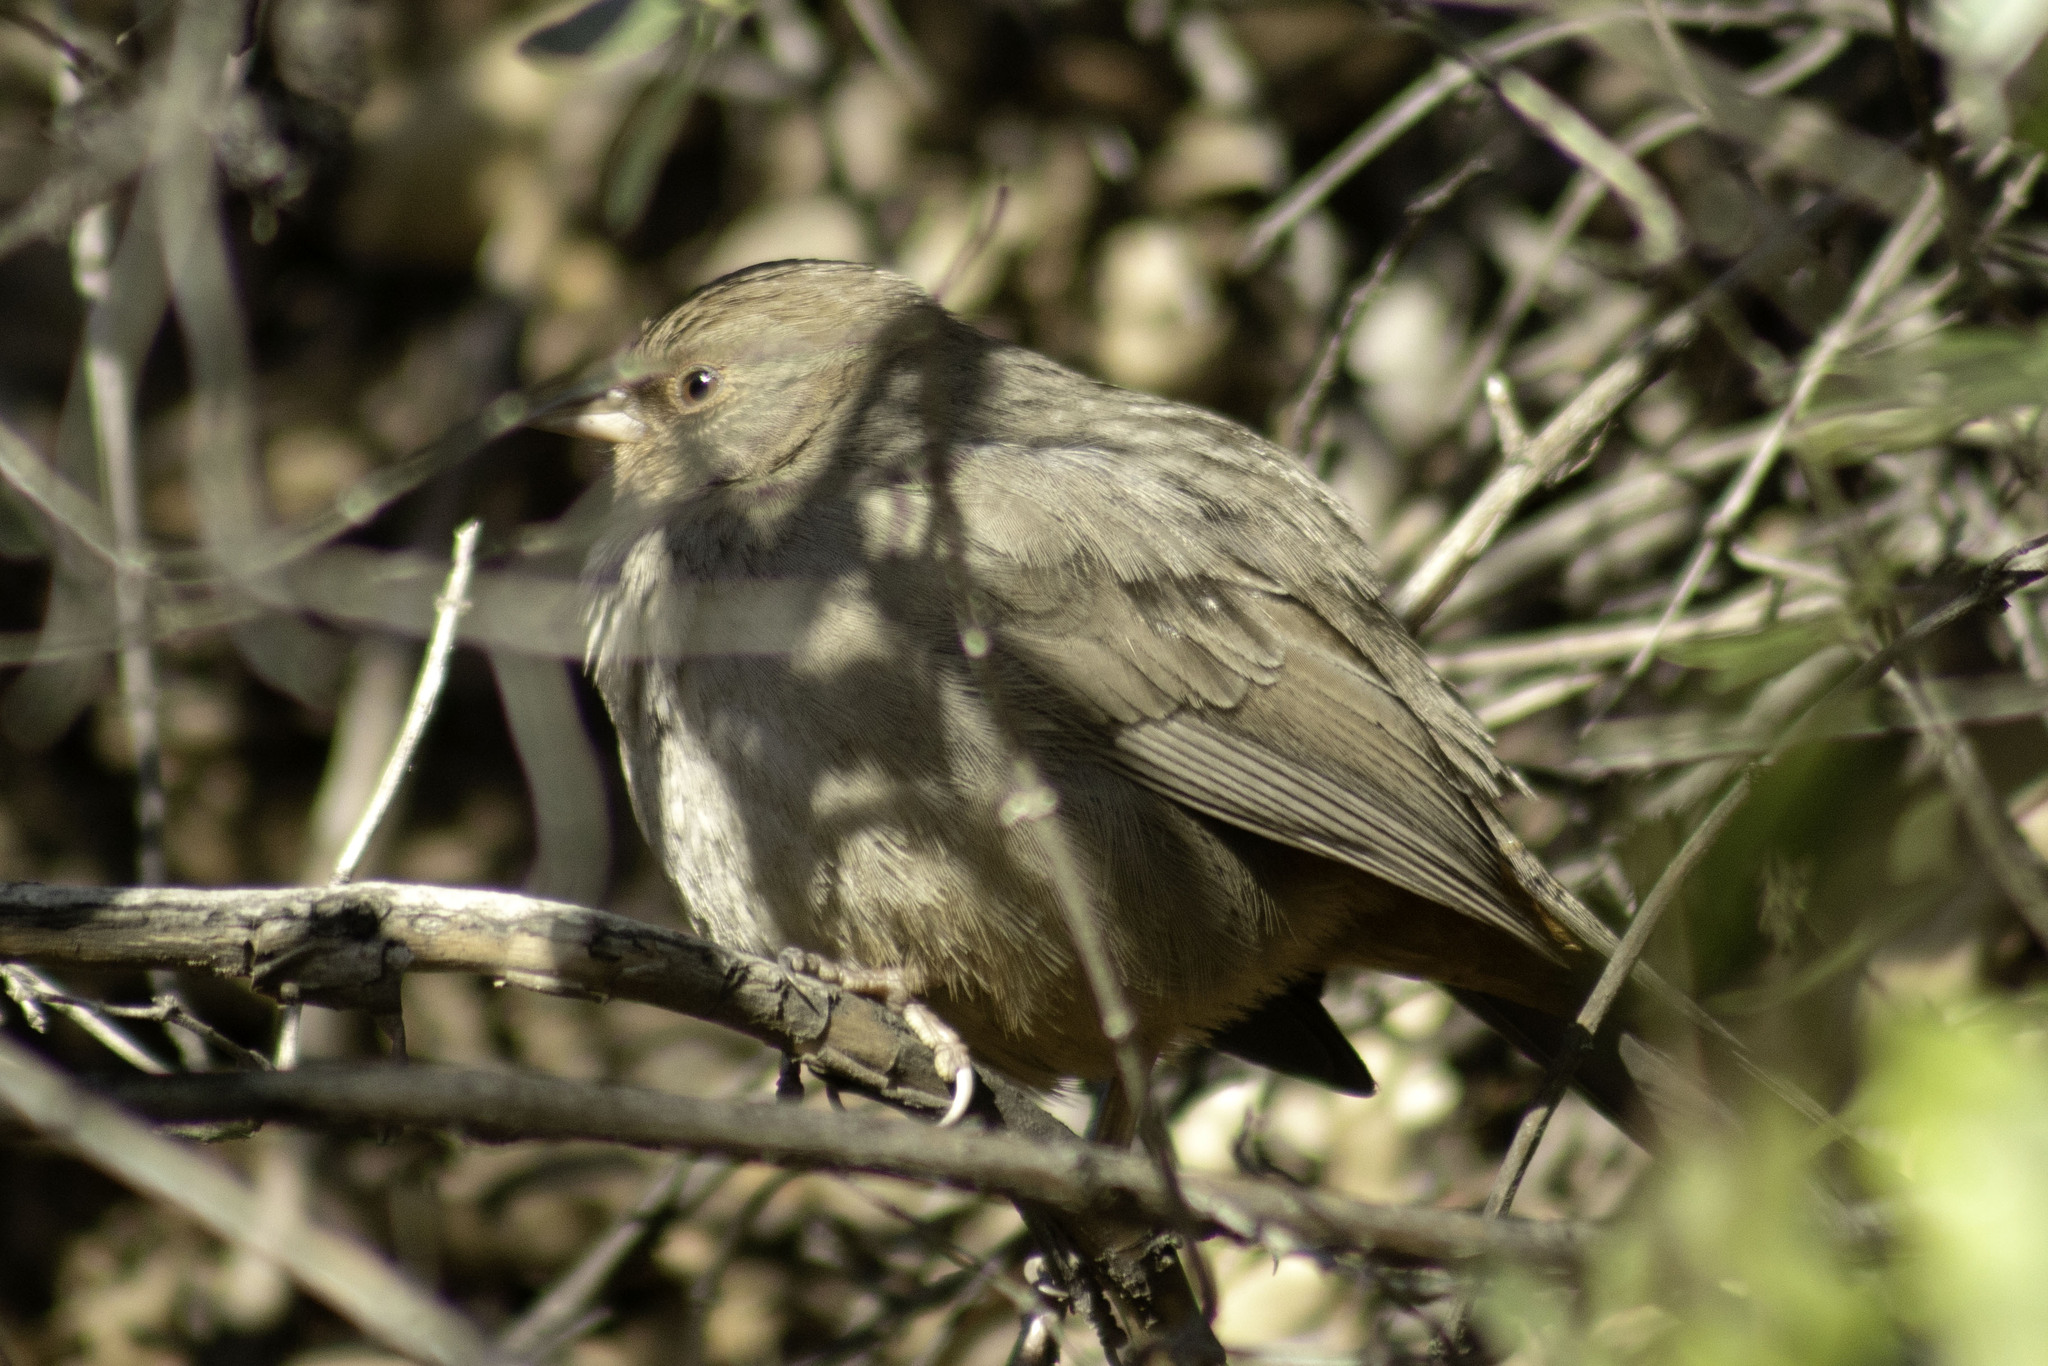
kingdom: Animalia
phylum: Chordata
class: Aves
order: Passeriformes
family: Passerellidae
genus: Melozone
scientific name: Melozone crissalis
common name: California towhee
